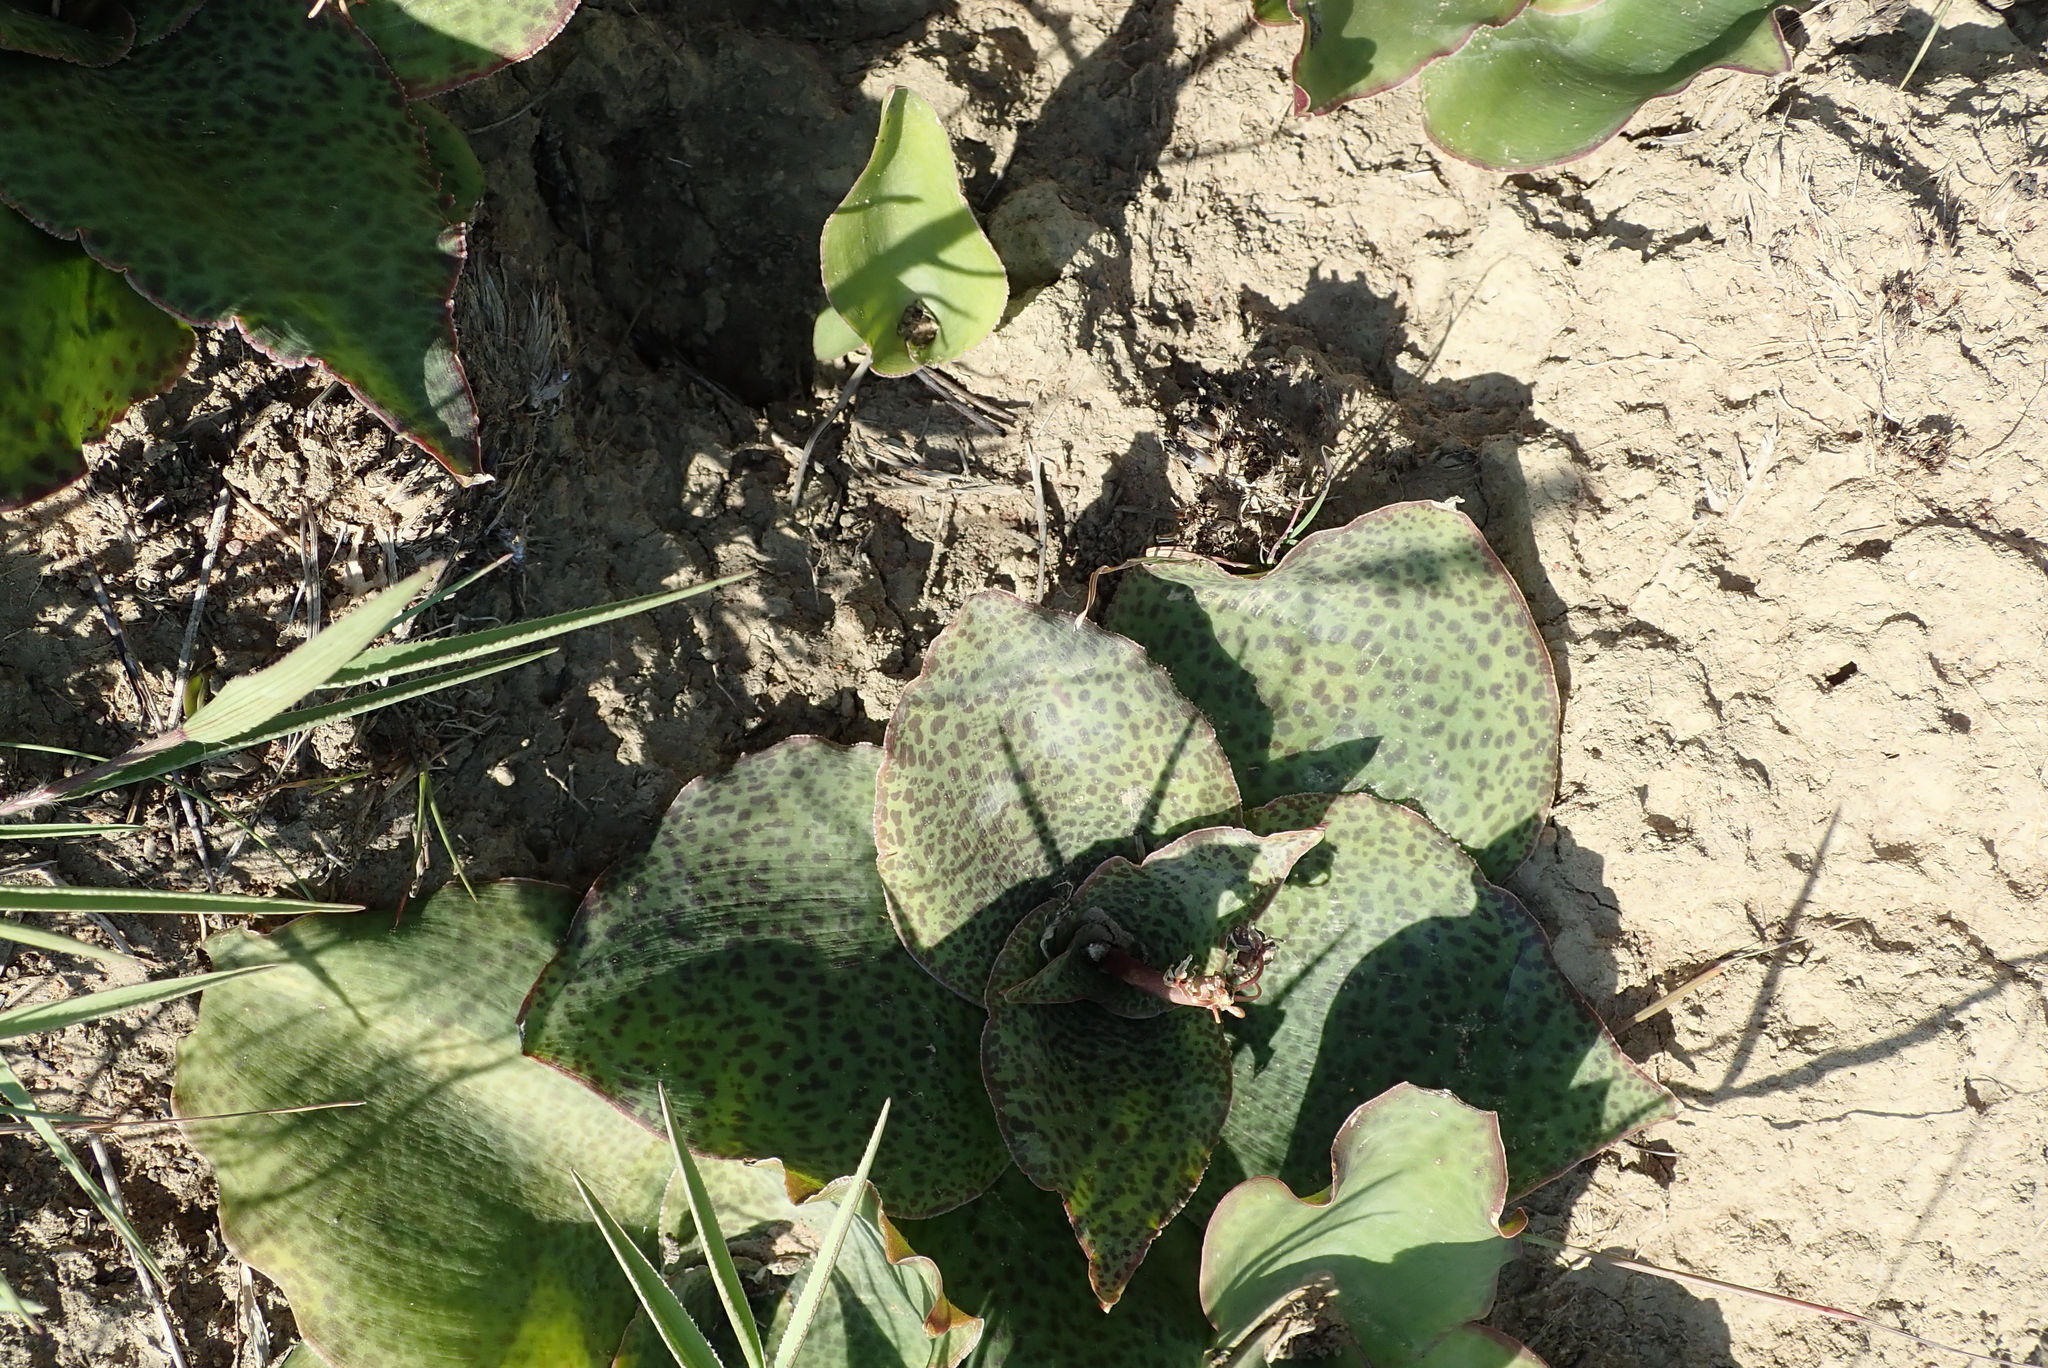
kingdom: Plantae
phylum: Tracheophyta
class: Liliopsida
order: Asparagales
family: Asparagaceae
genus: Ledebouria
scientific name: Ledebouria ovatifolia
